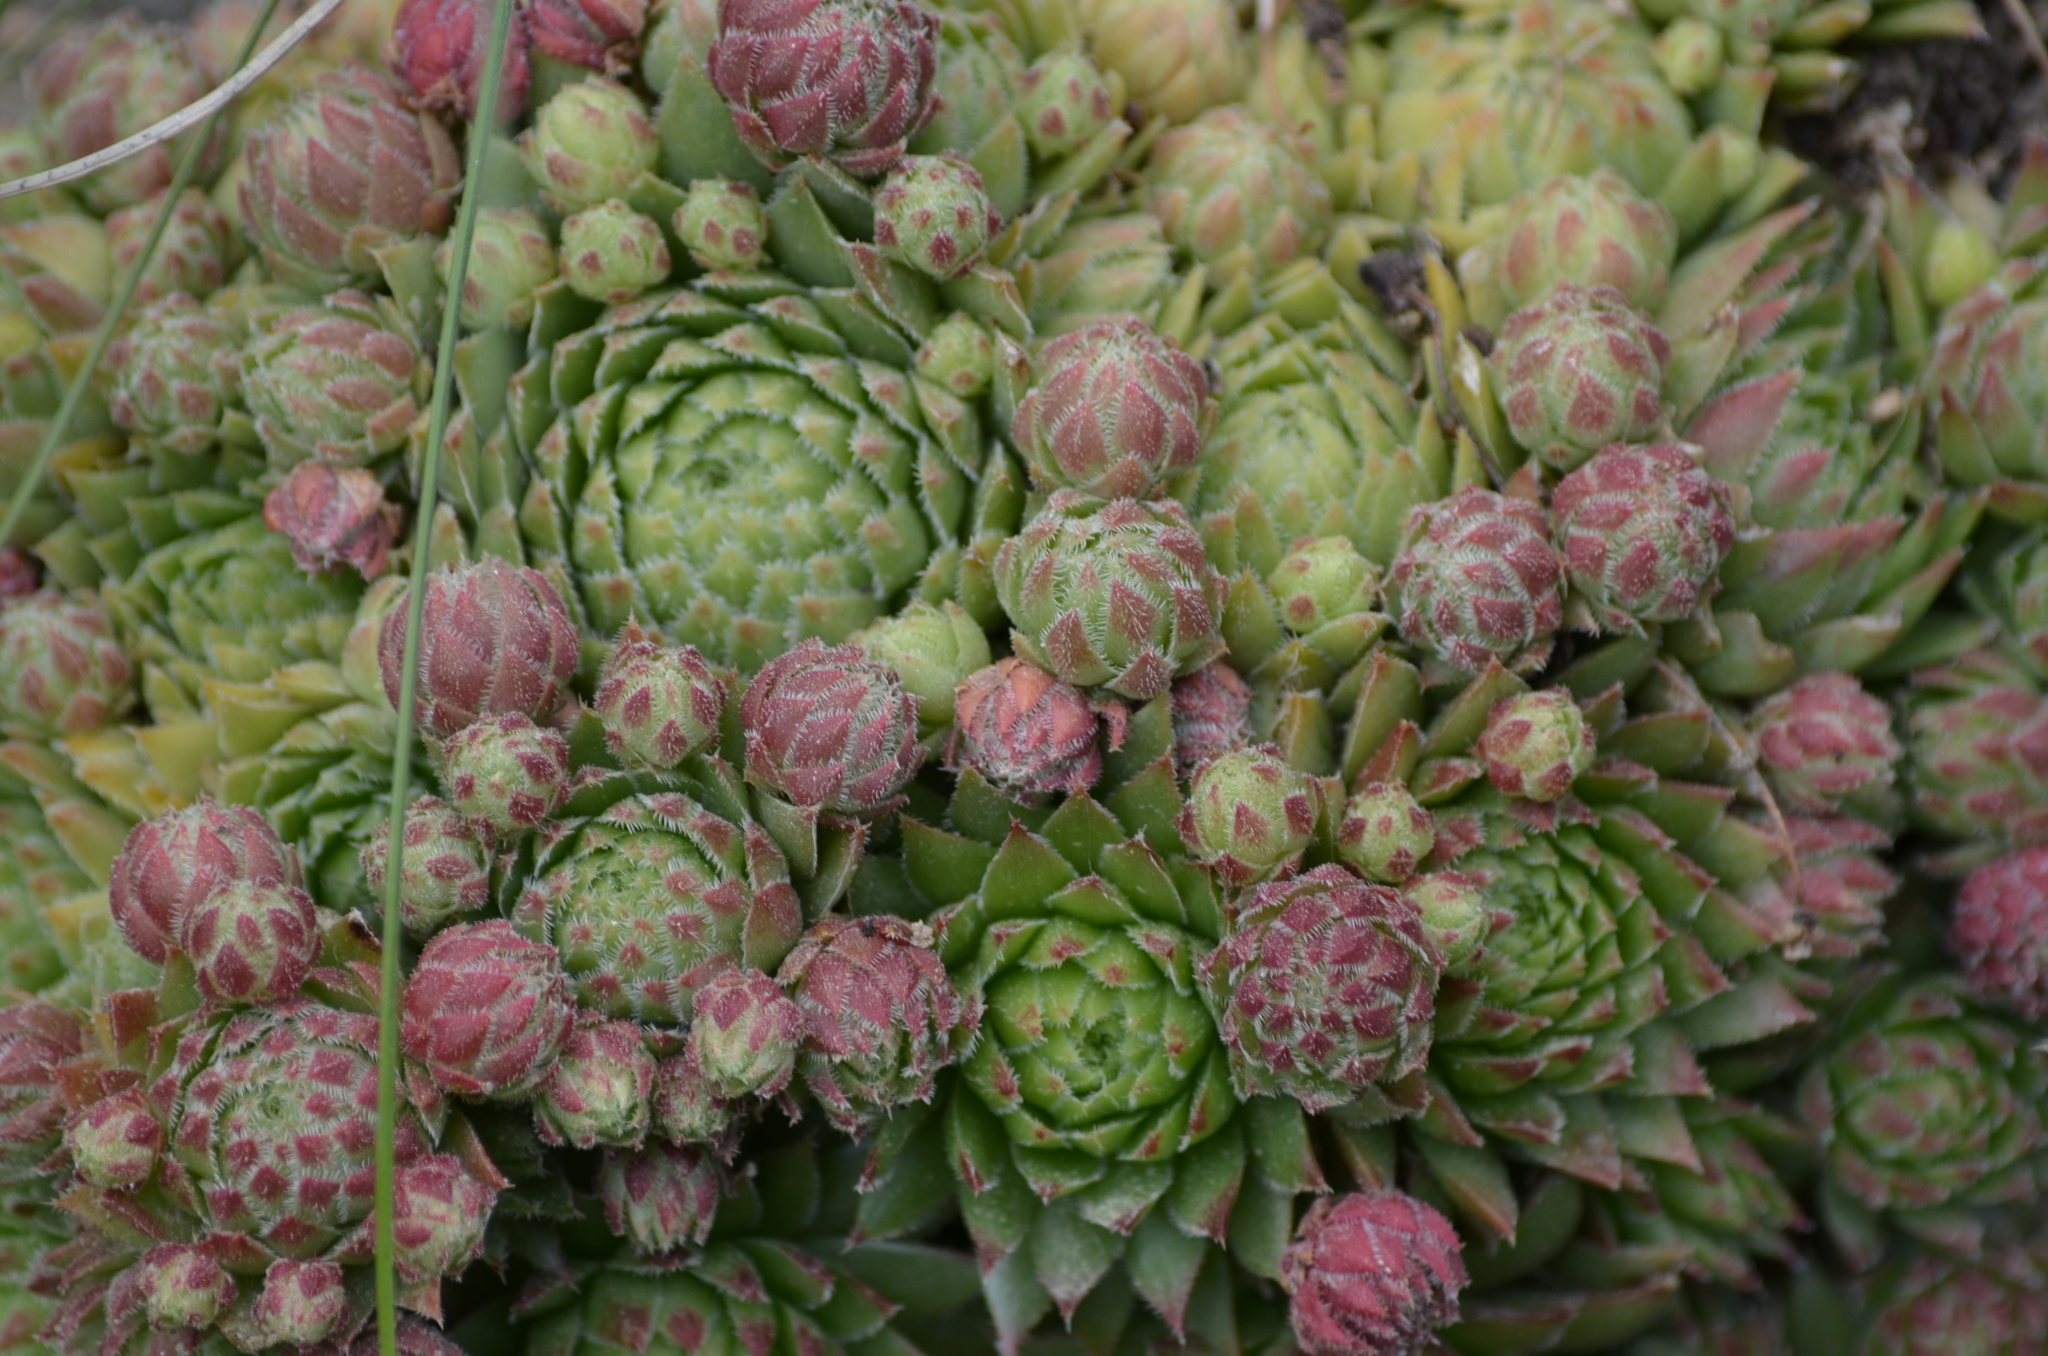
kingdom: Plantae
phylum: Tracheophyta
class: Magnoliopsida
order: Saxifragales
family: Crassulaceae
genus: Sempervivum
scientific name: Sempervivum globiferum
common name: Rolling hen-and-chicks
